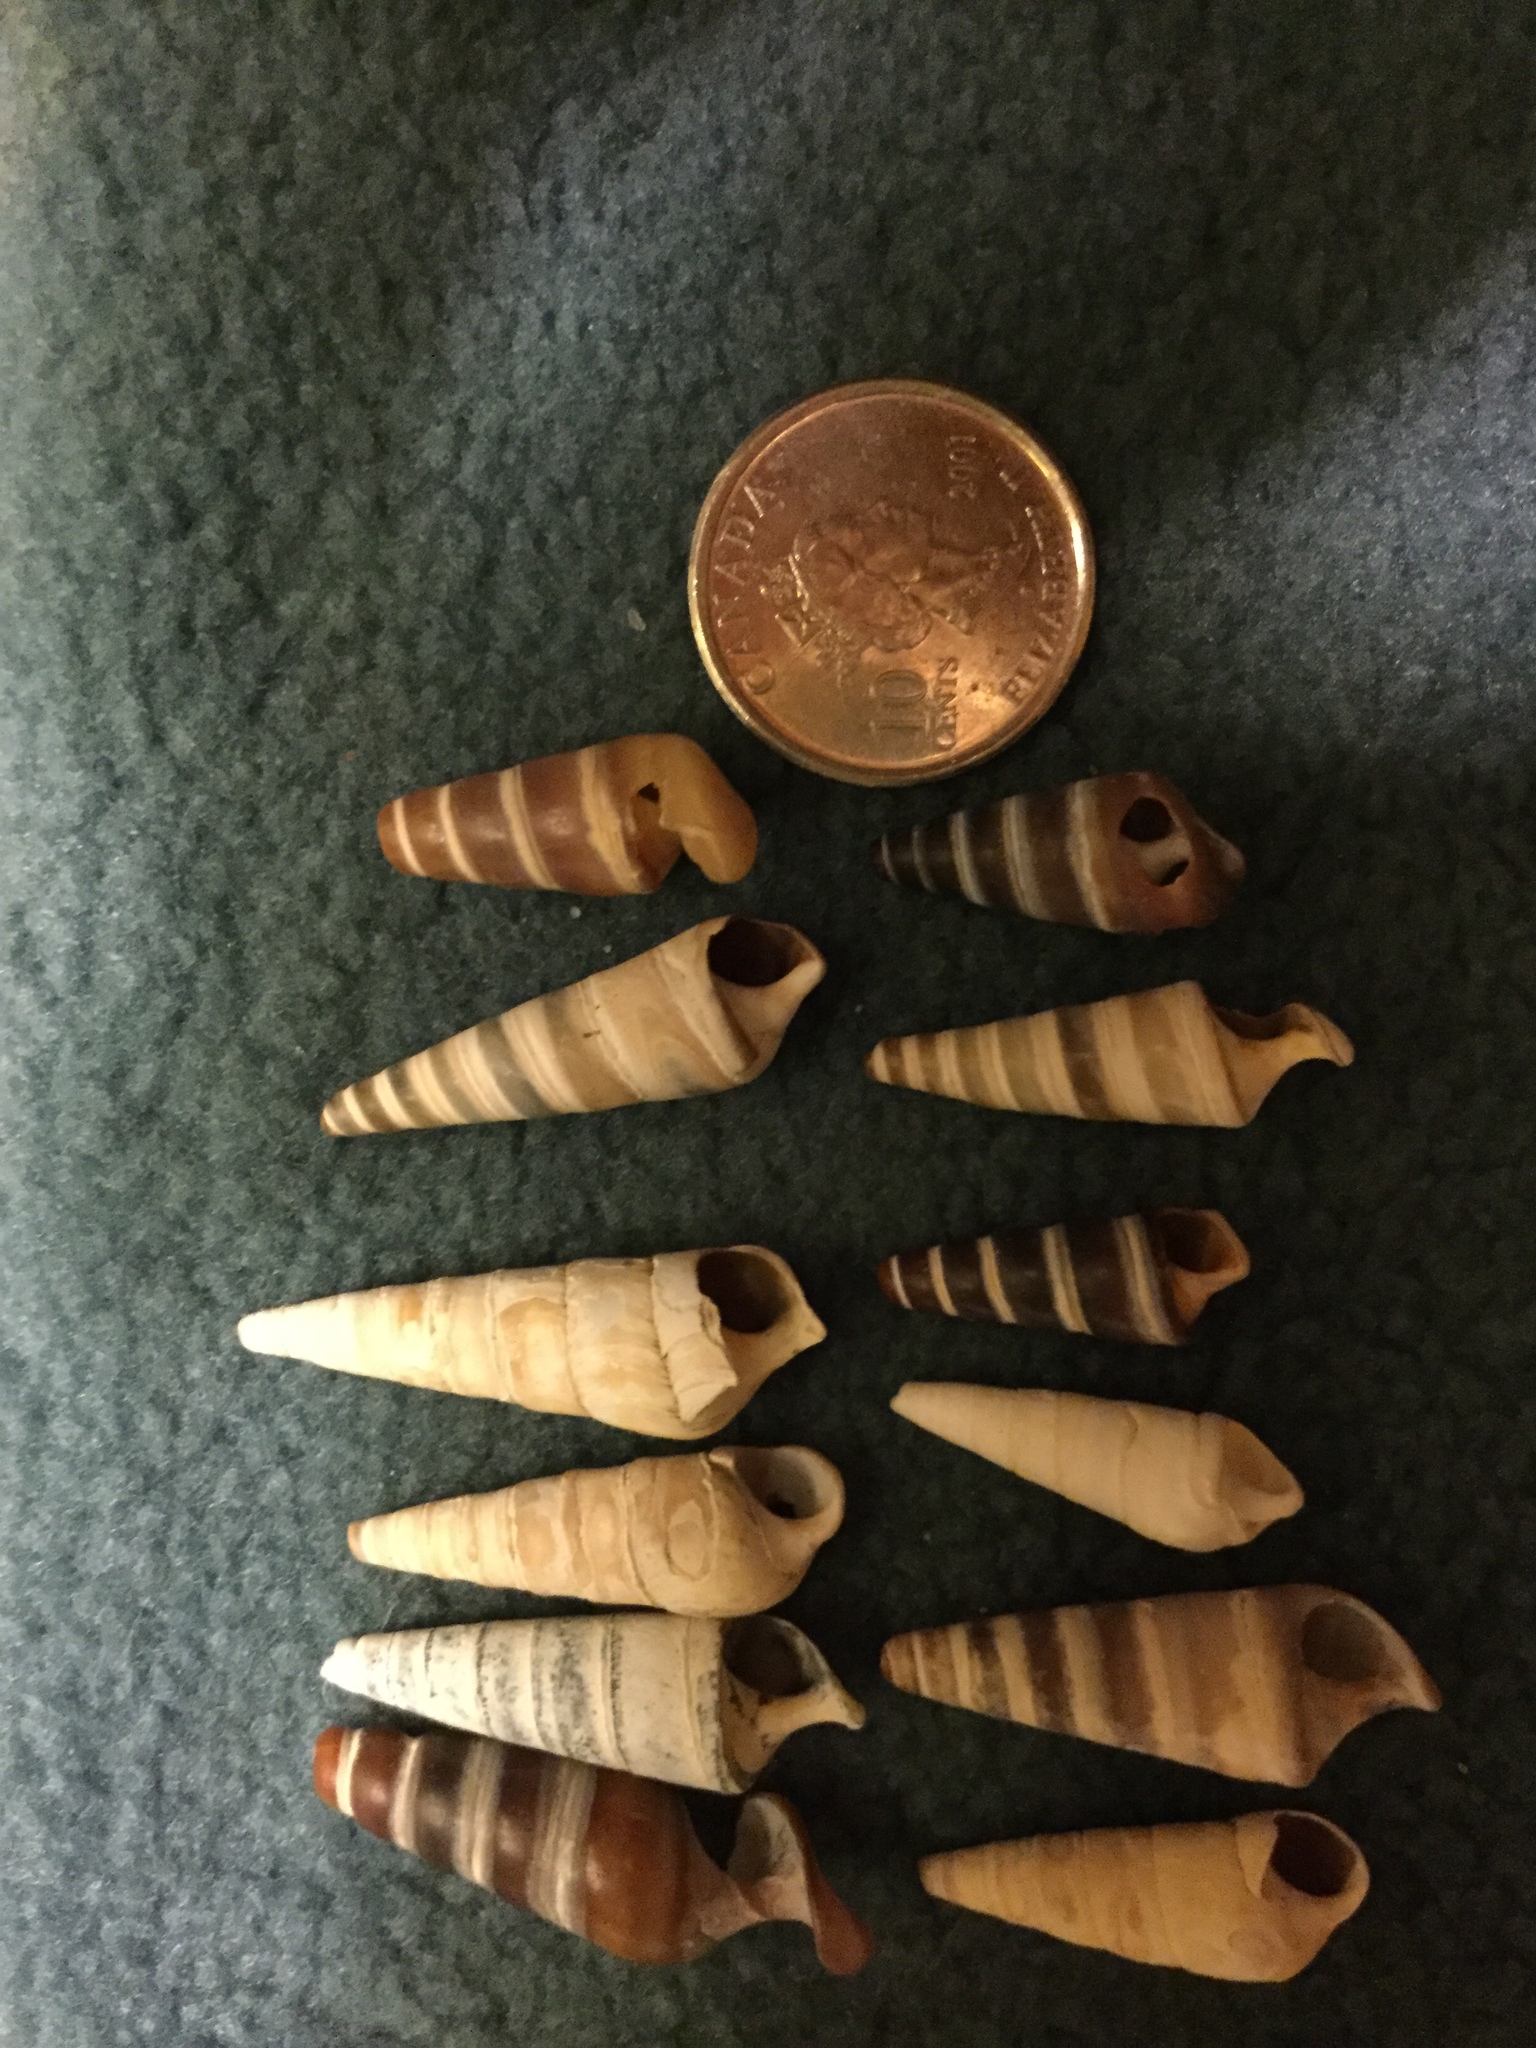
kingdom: Animalia
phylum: Mollusca
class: Gastropoda
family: Pleuroceridae
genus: Pleurocera
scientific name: Pleurocera acuta
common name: Sharp hornsnail
